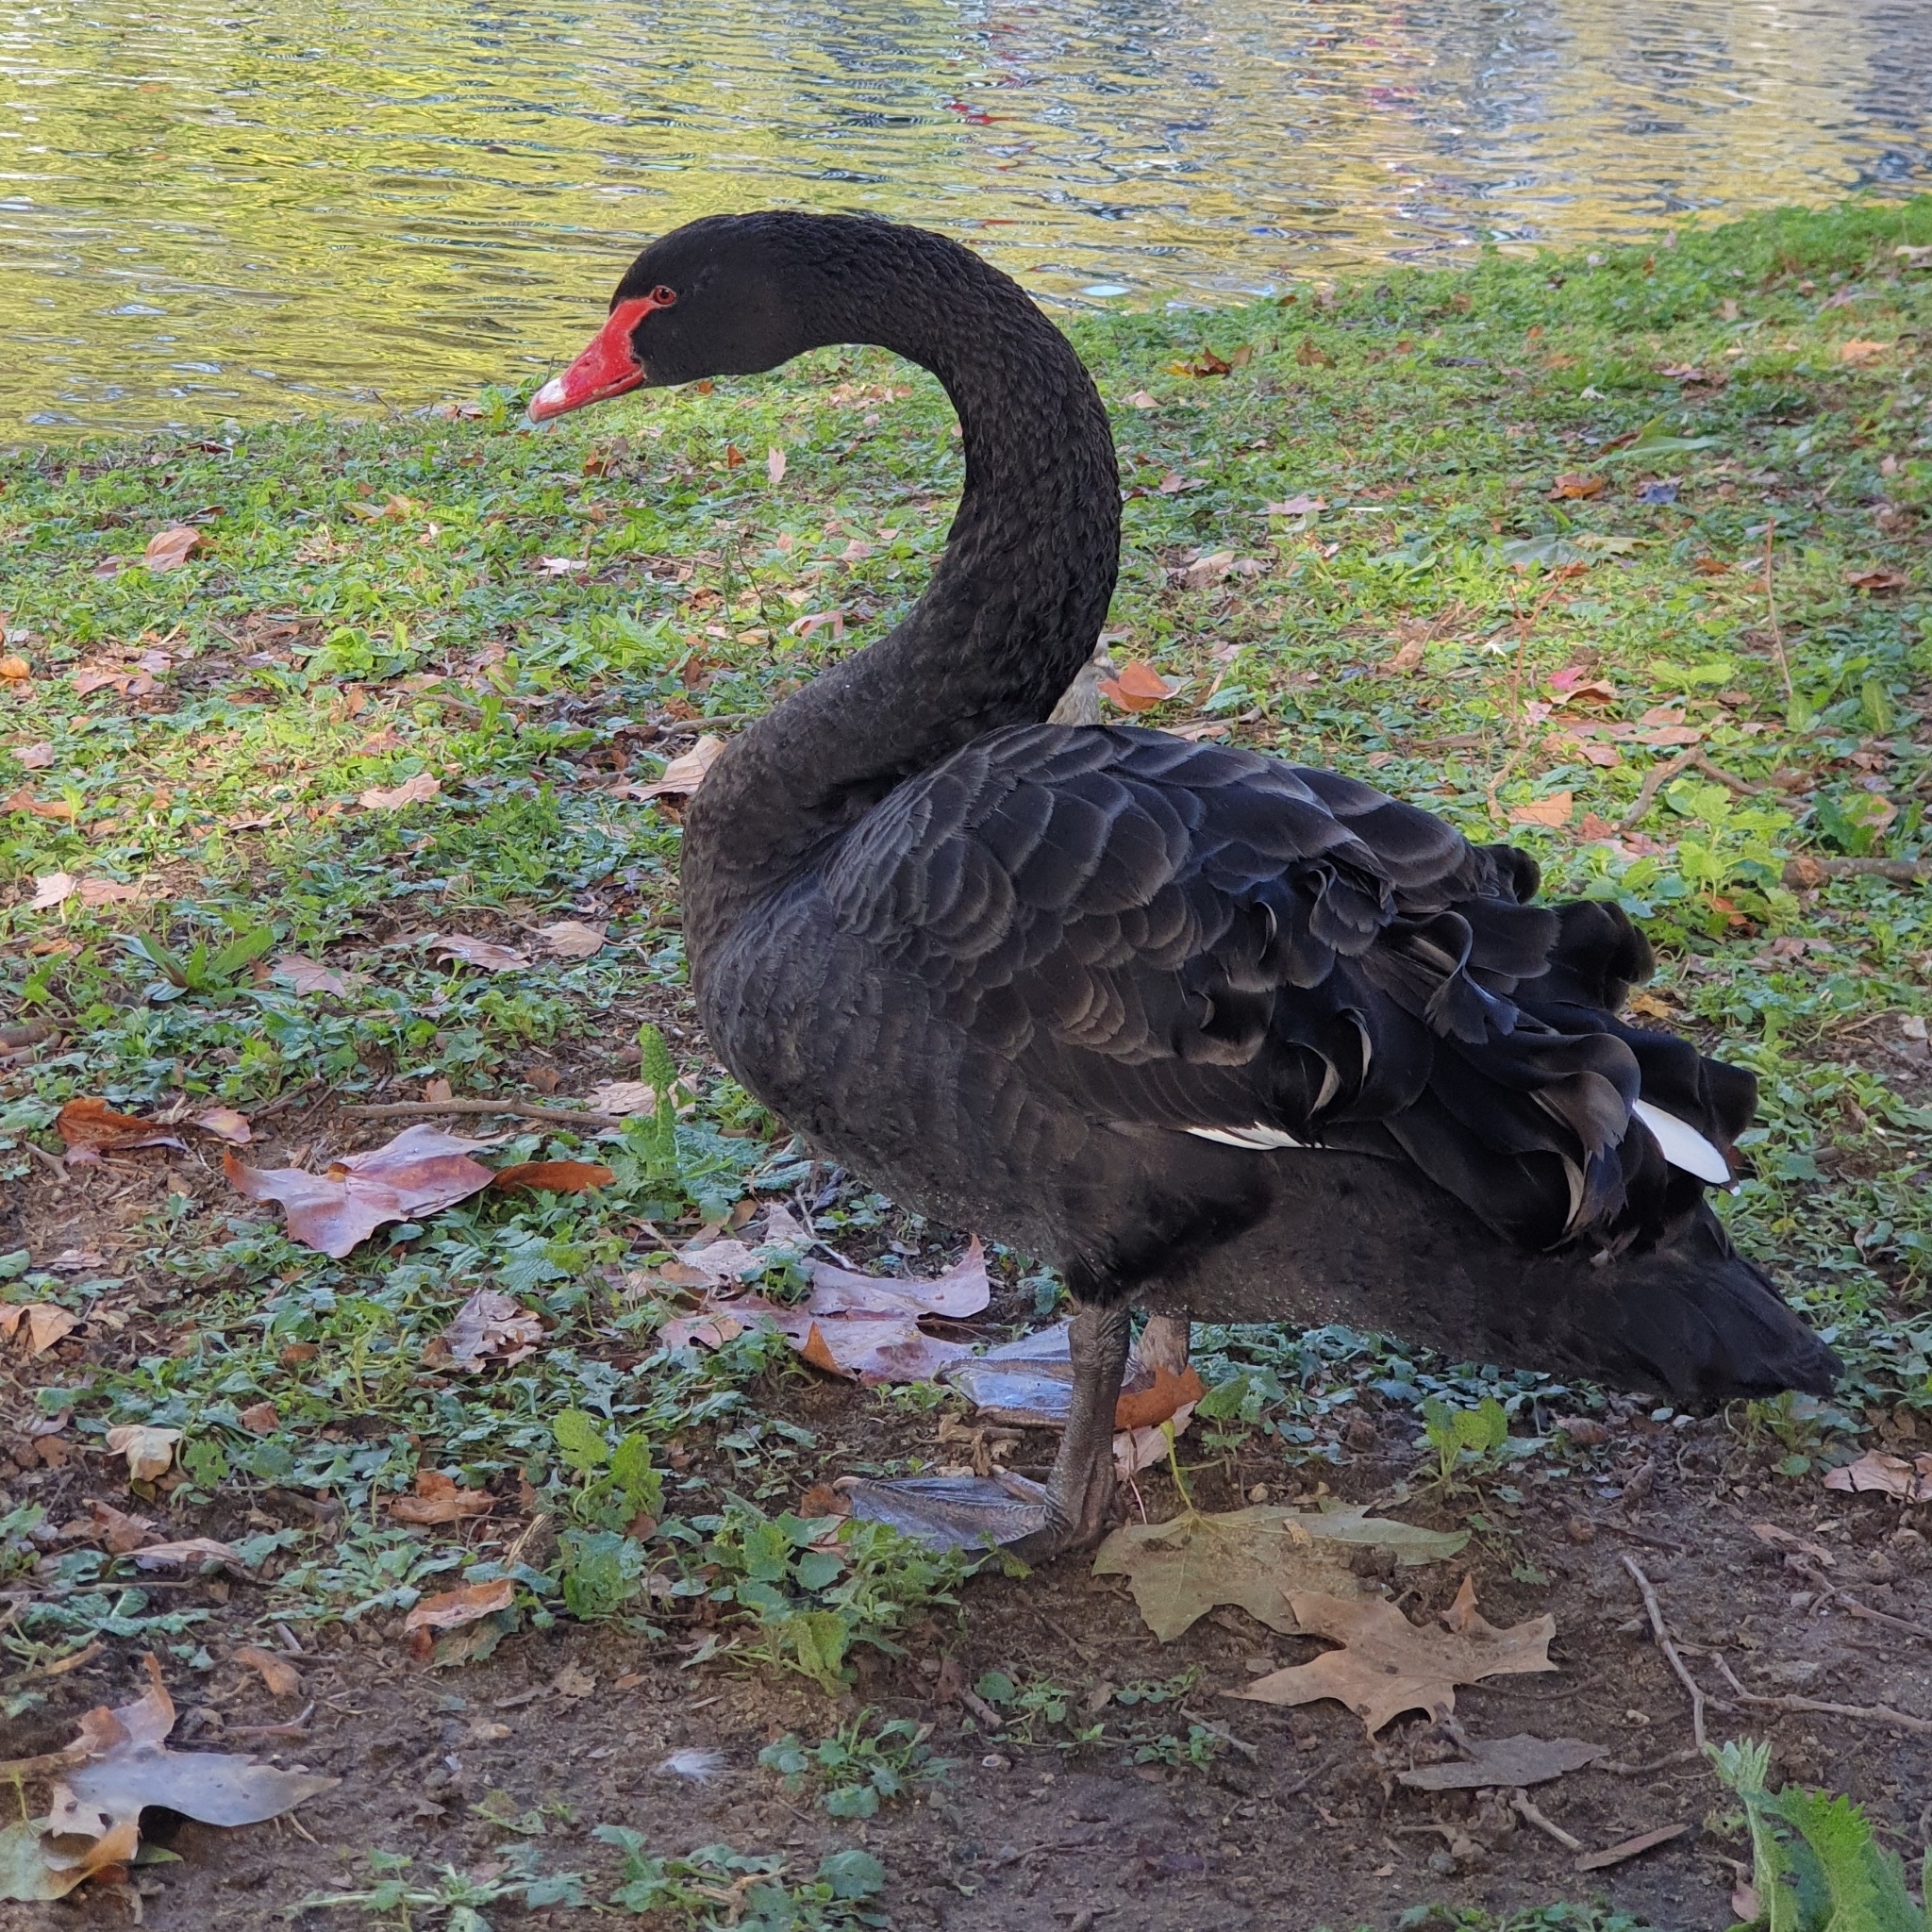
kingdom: Animalia
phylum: Chordata
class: Aves
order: Anseriformes
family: Anatidae
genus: Cygnus
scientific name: Cygnus atratus
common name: Black swan
